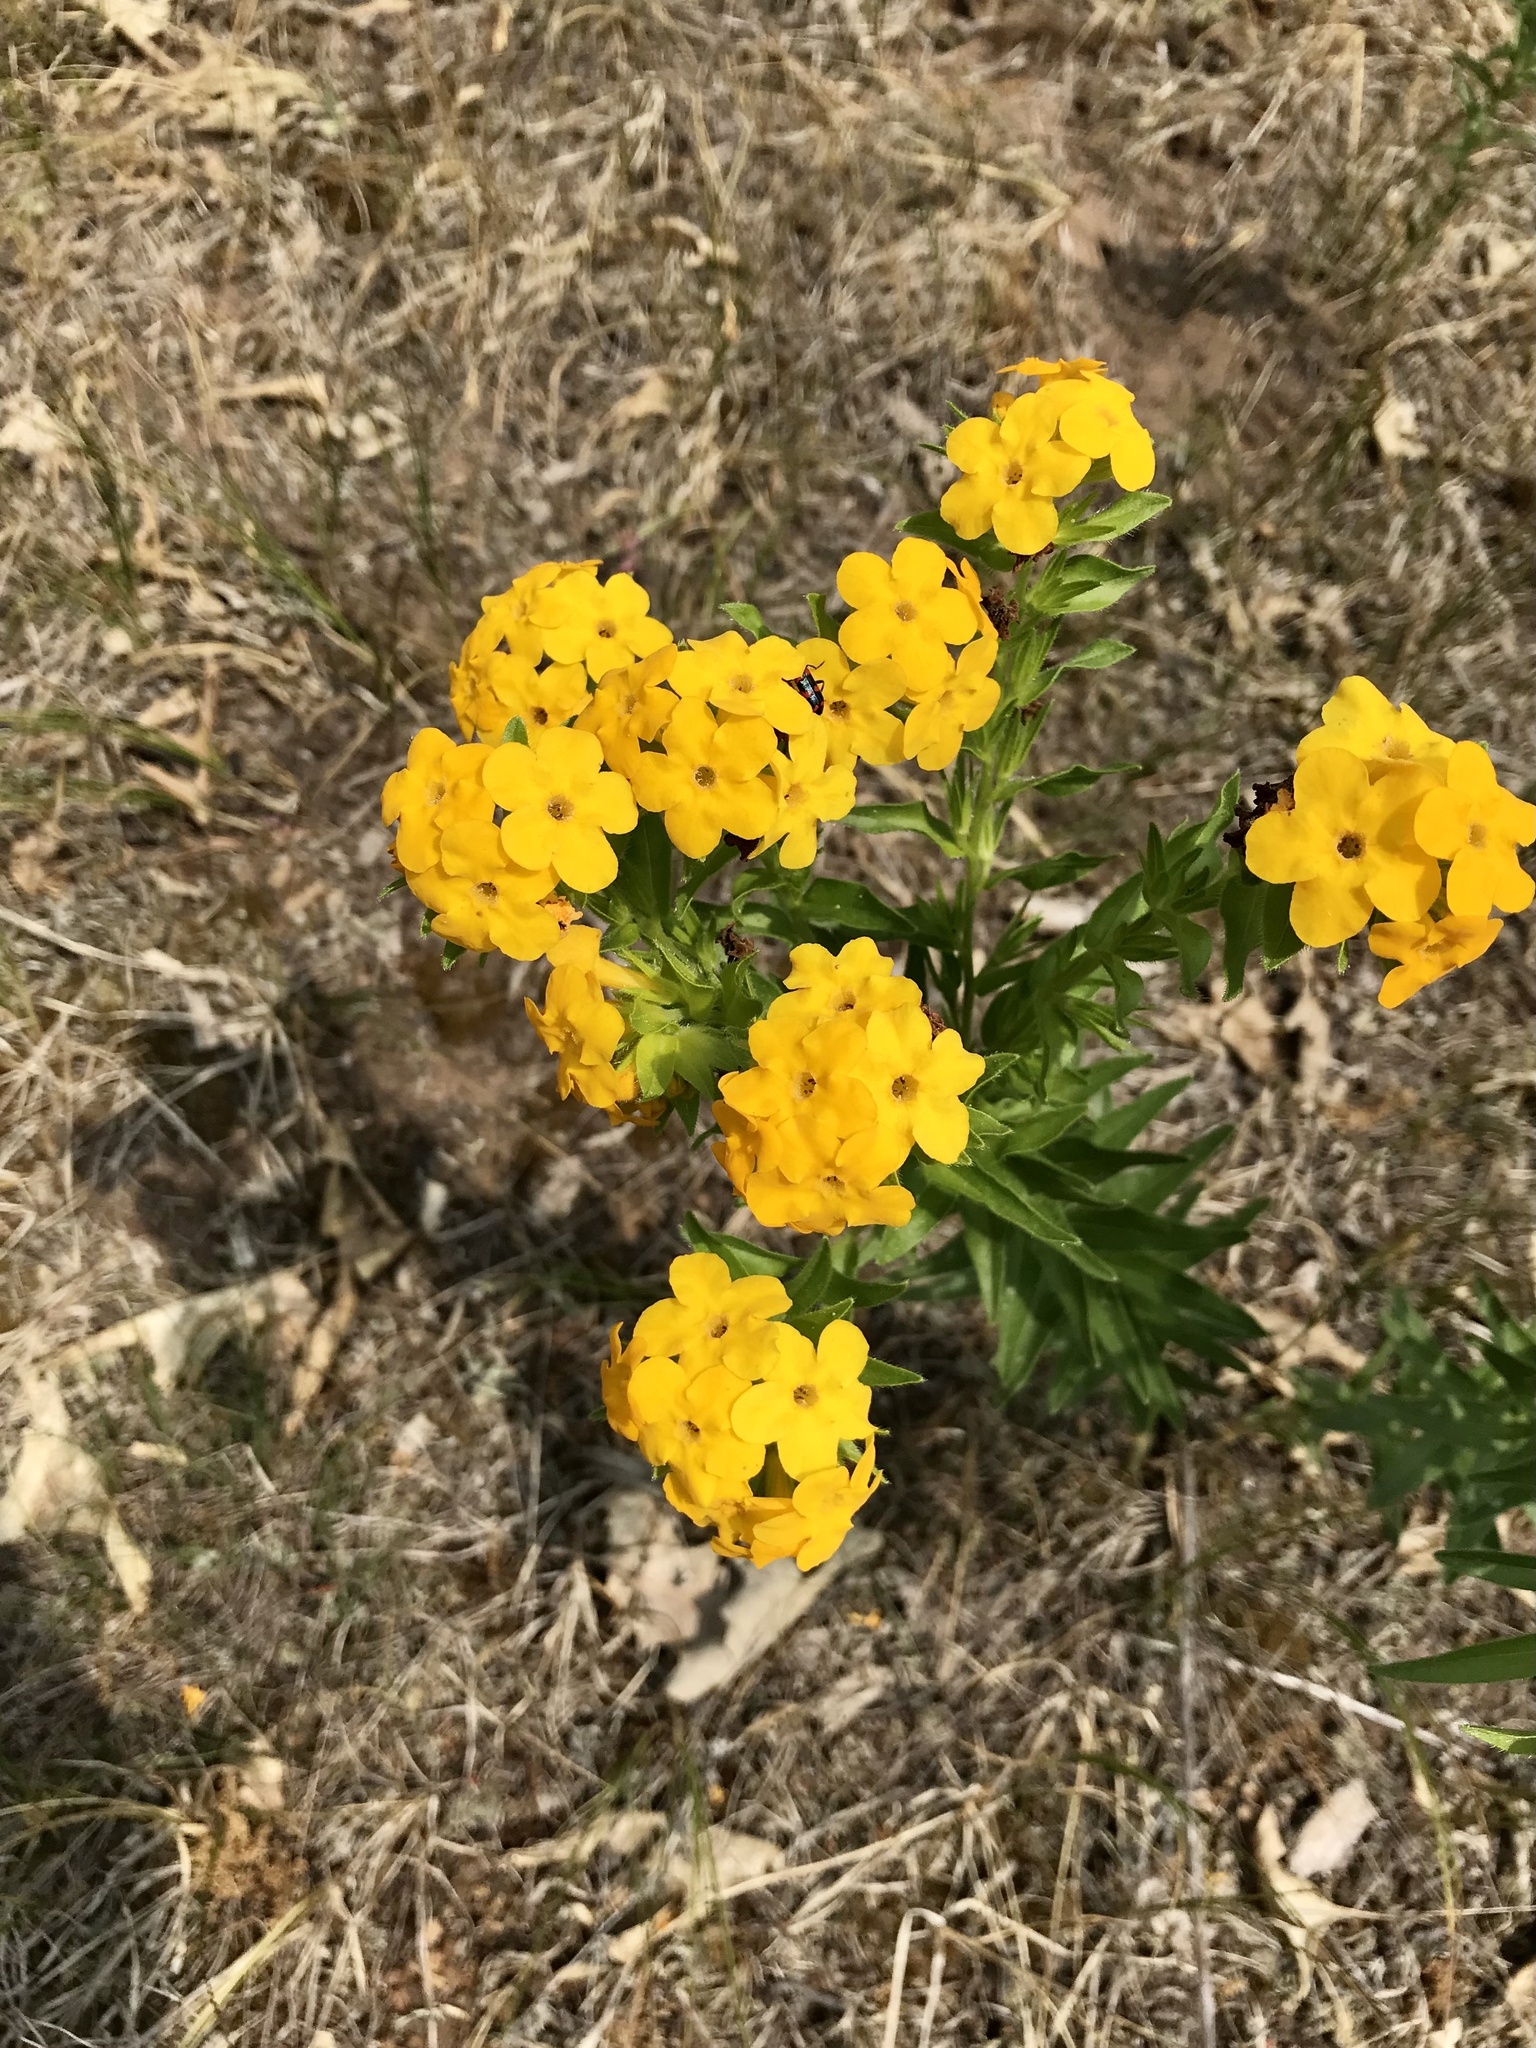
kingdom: Plantae
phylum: Tracheophyta
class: Magnoliopsida
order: Boraginales
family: Boraginaceae
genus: Lithospermum
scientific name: Lithospermum caroliniense
